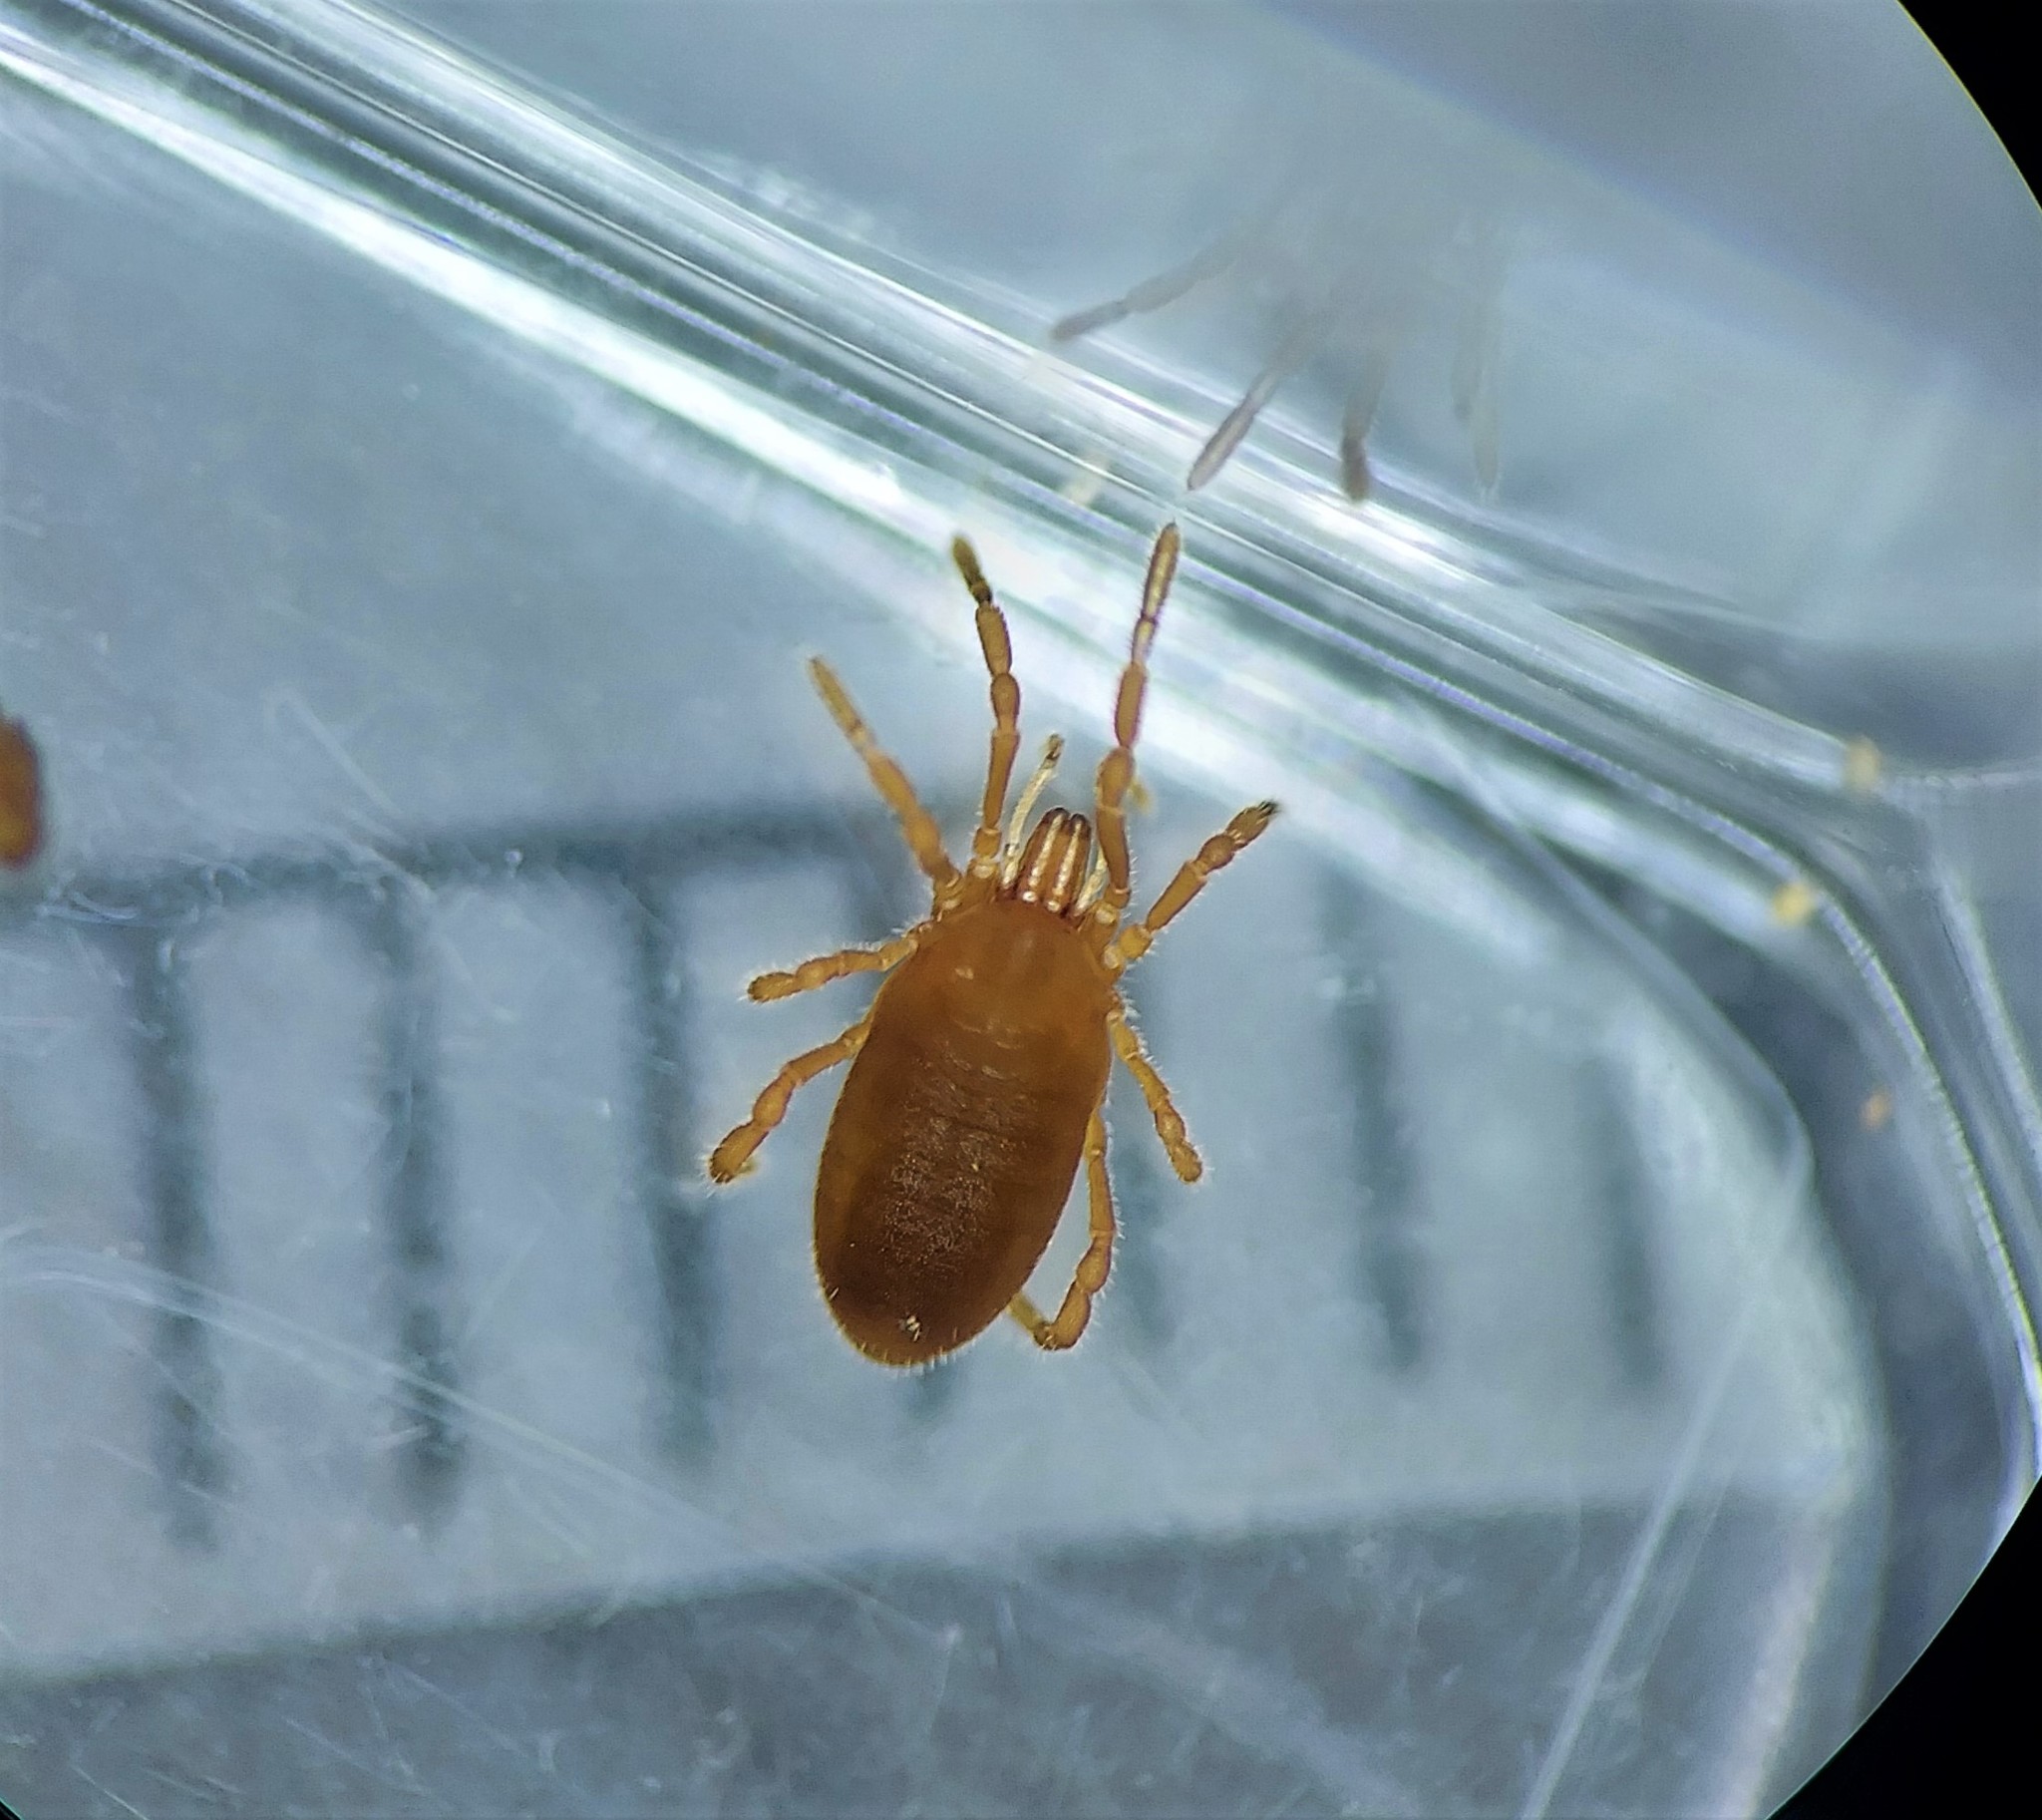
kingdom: Animalia
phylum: Arthropoda
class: Arachnida
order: Opiliones
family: Sironidae
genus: Neosiro
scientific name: Neosiro exilis
